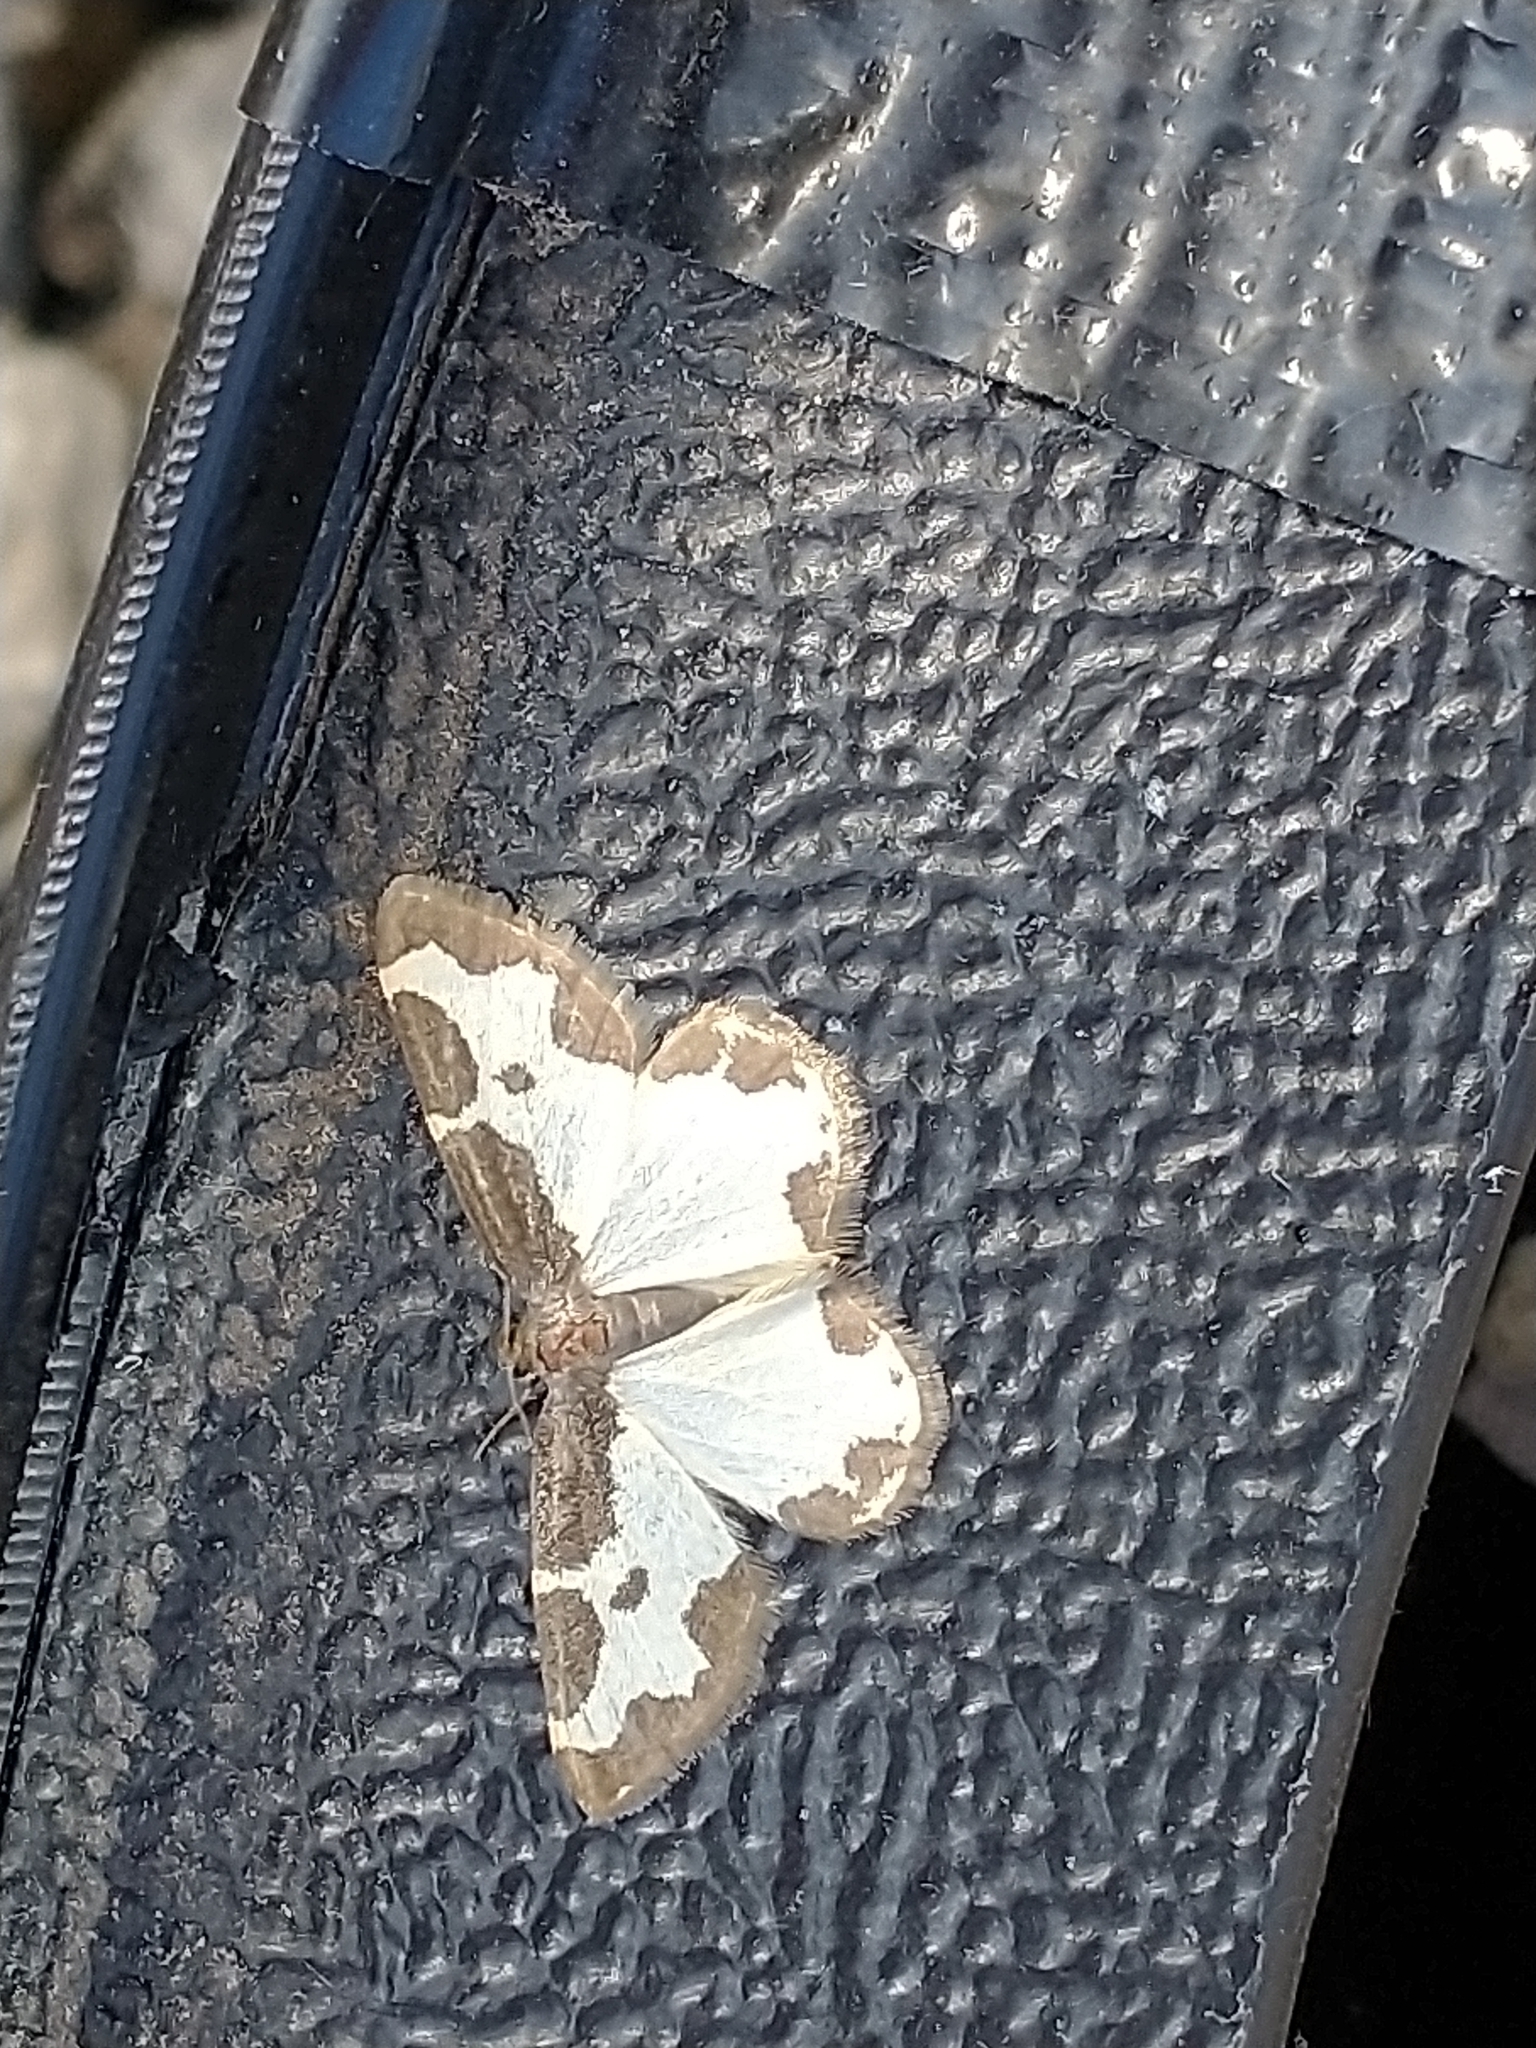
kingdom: Animalia
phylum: Arthropoda
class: Insecta
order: Lepidoptera
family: Geometridae
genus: Lomaspilis
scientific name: Lomaspilis marginata
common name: Clouded border
